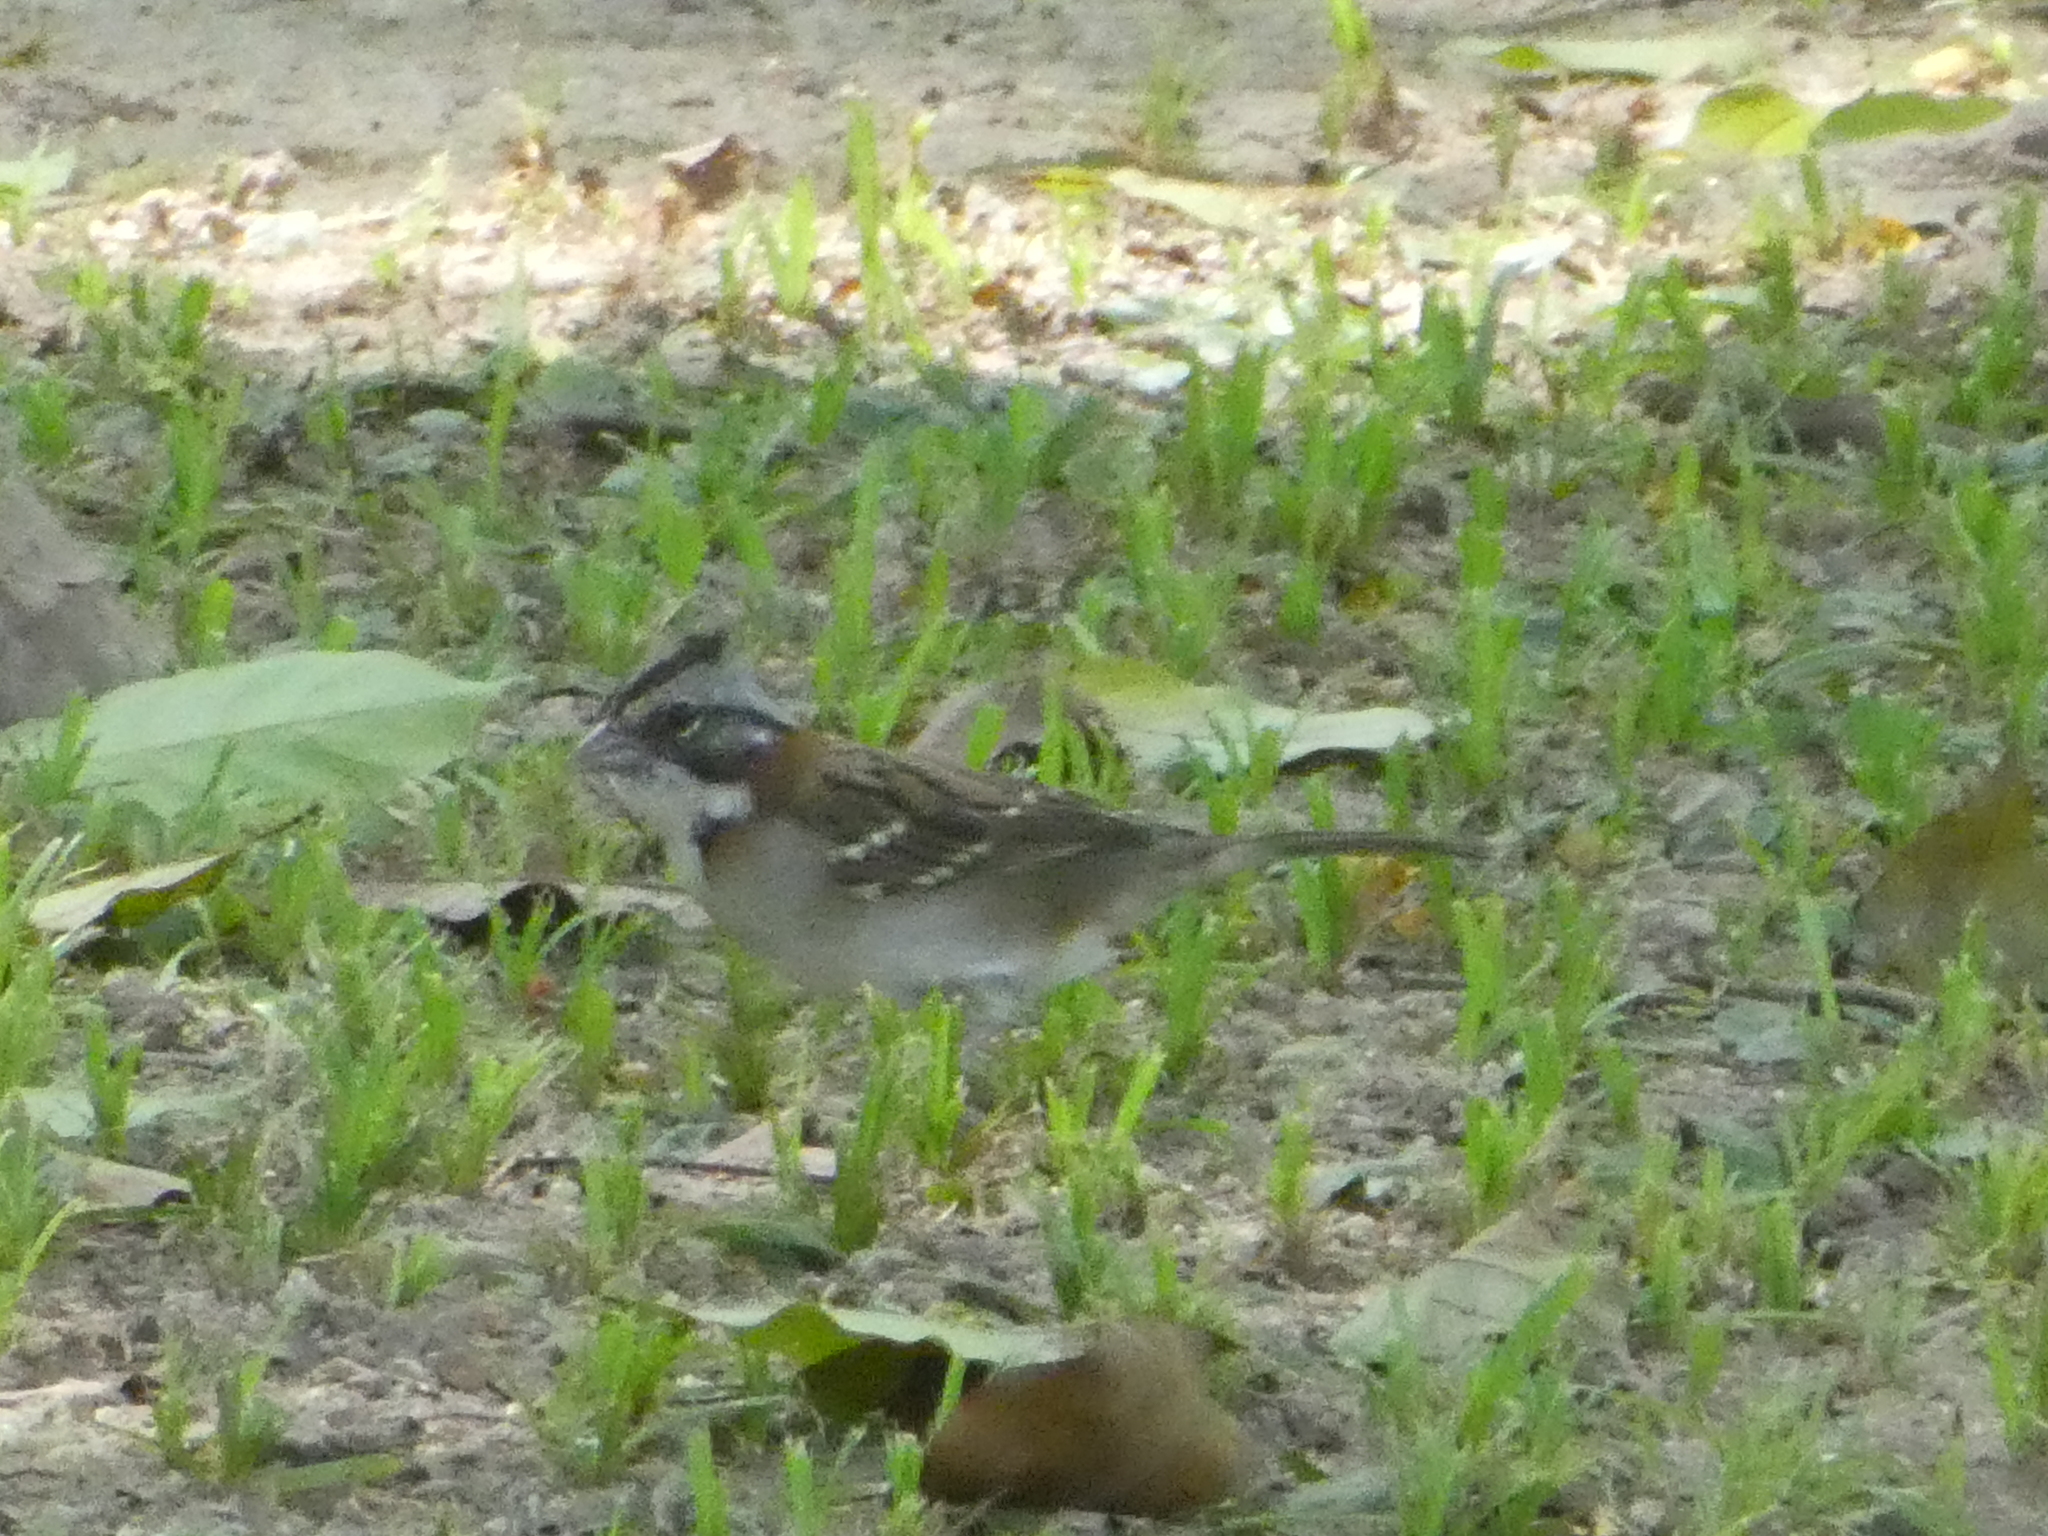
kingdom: Animalia
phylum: Chordata
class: Aves
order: Passeriformes
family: Passerellidae
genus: Zonotrichia
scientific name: Zonotrichia capensis
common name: Rufous-collared sparrow
